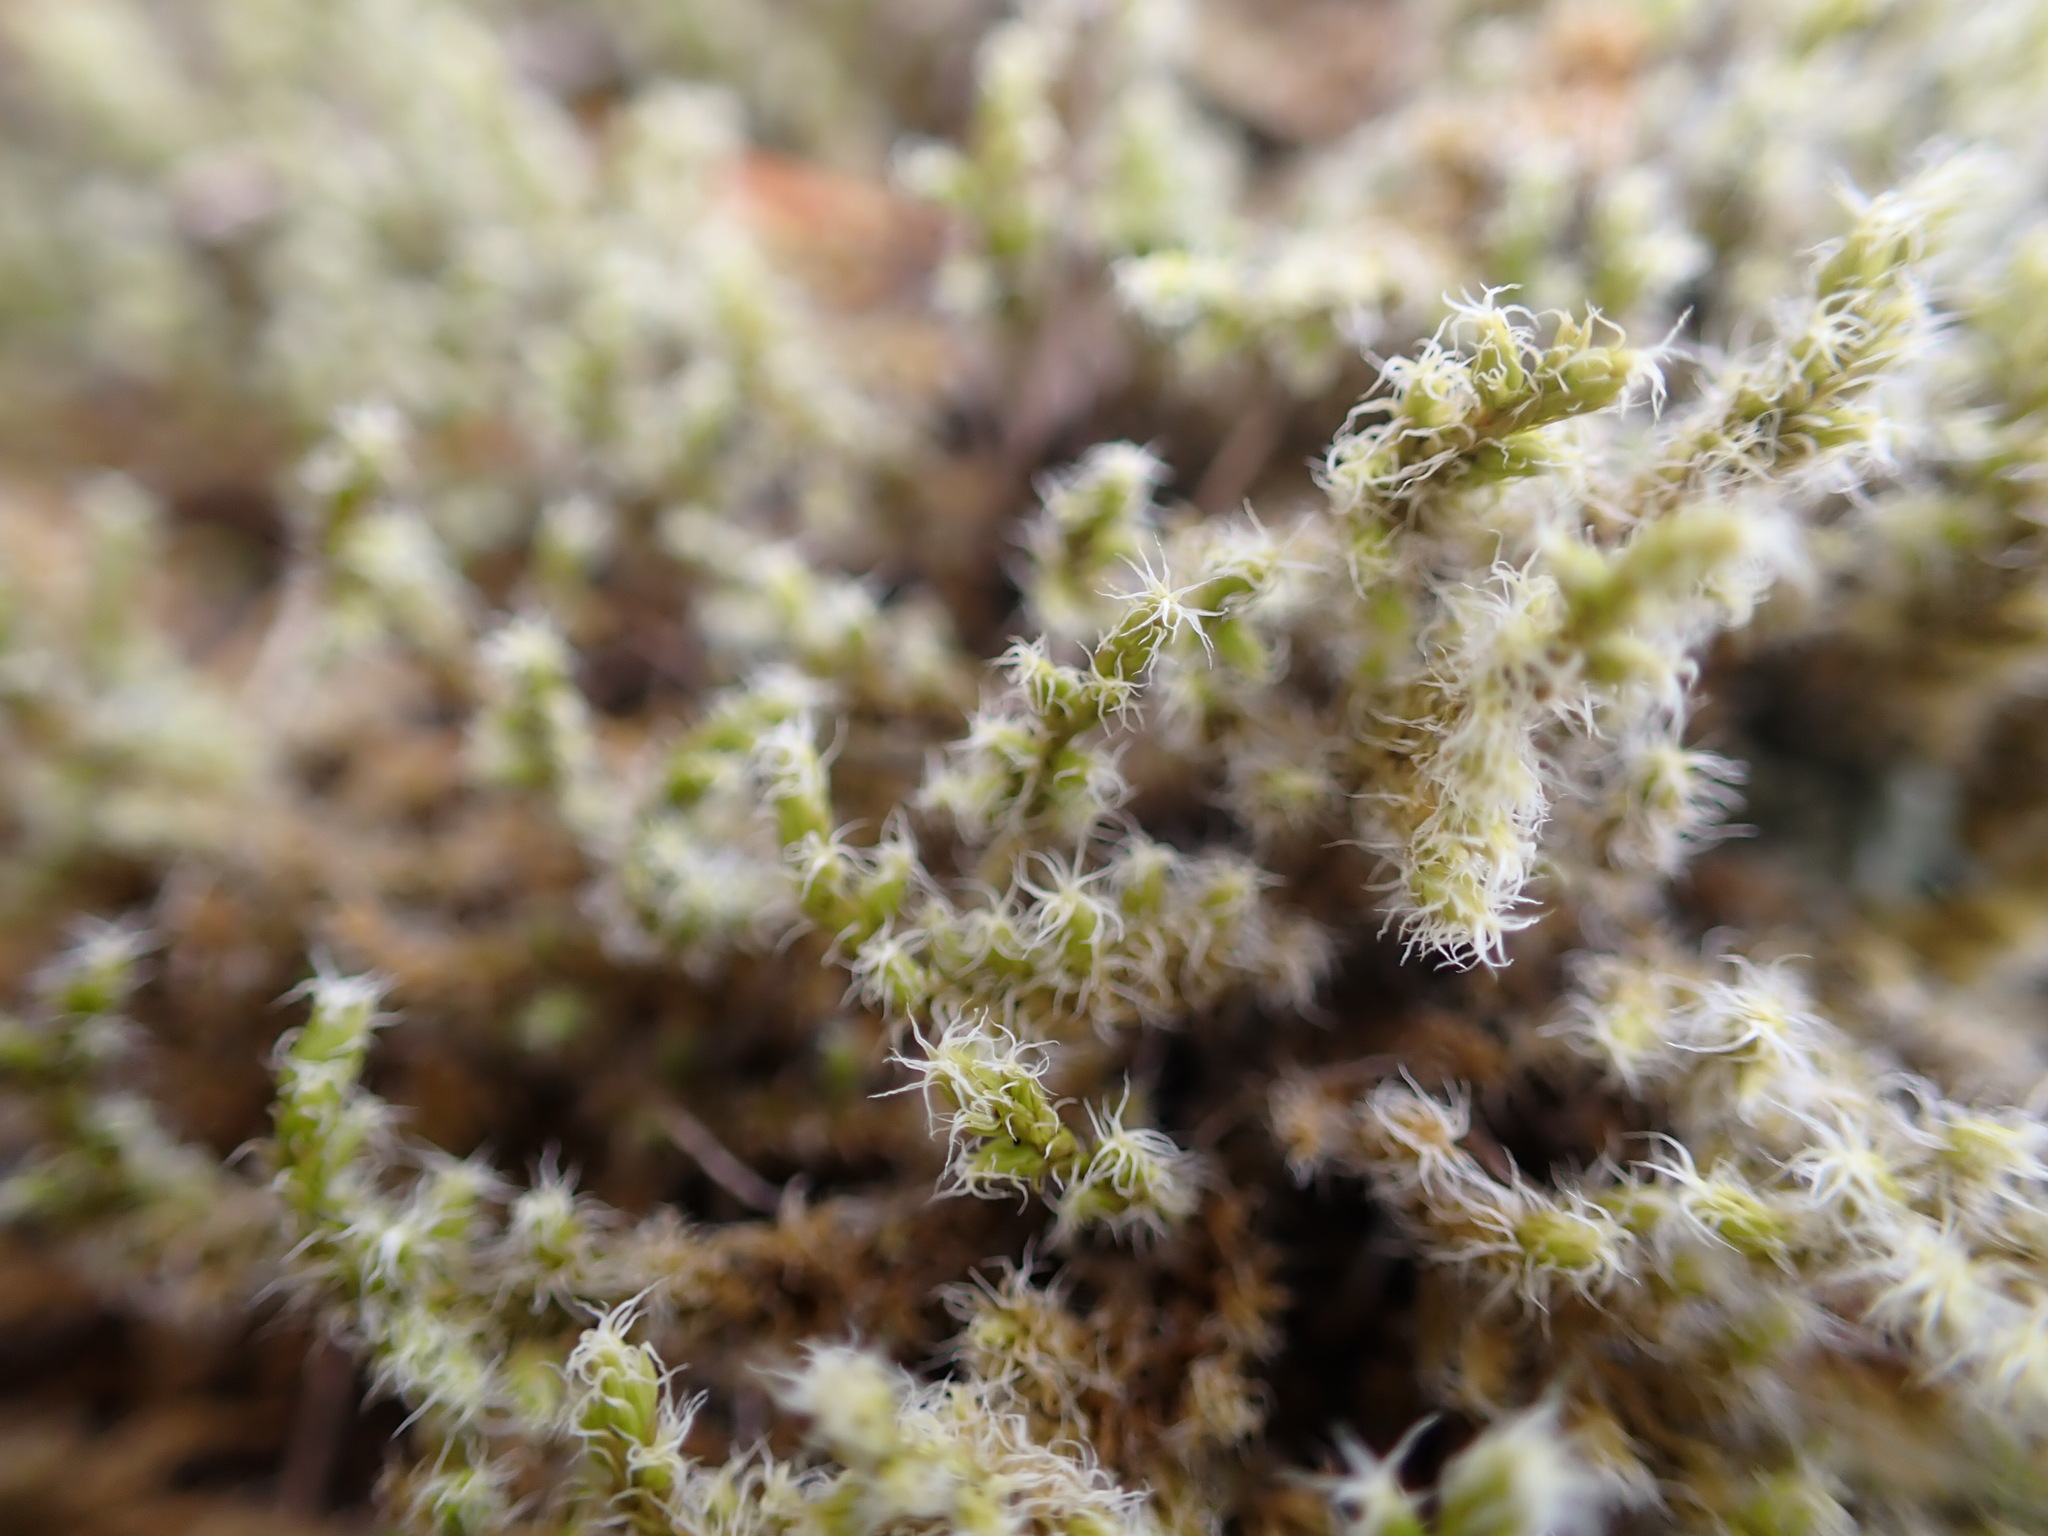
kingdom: Plantae
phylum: Bryophyta
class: Bryopsida
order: Grimmiales
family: Grimmiaceae
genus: Niphotrichum
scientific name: Niphotrichum elongatum
